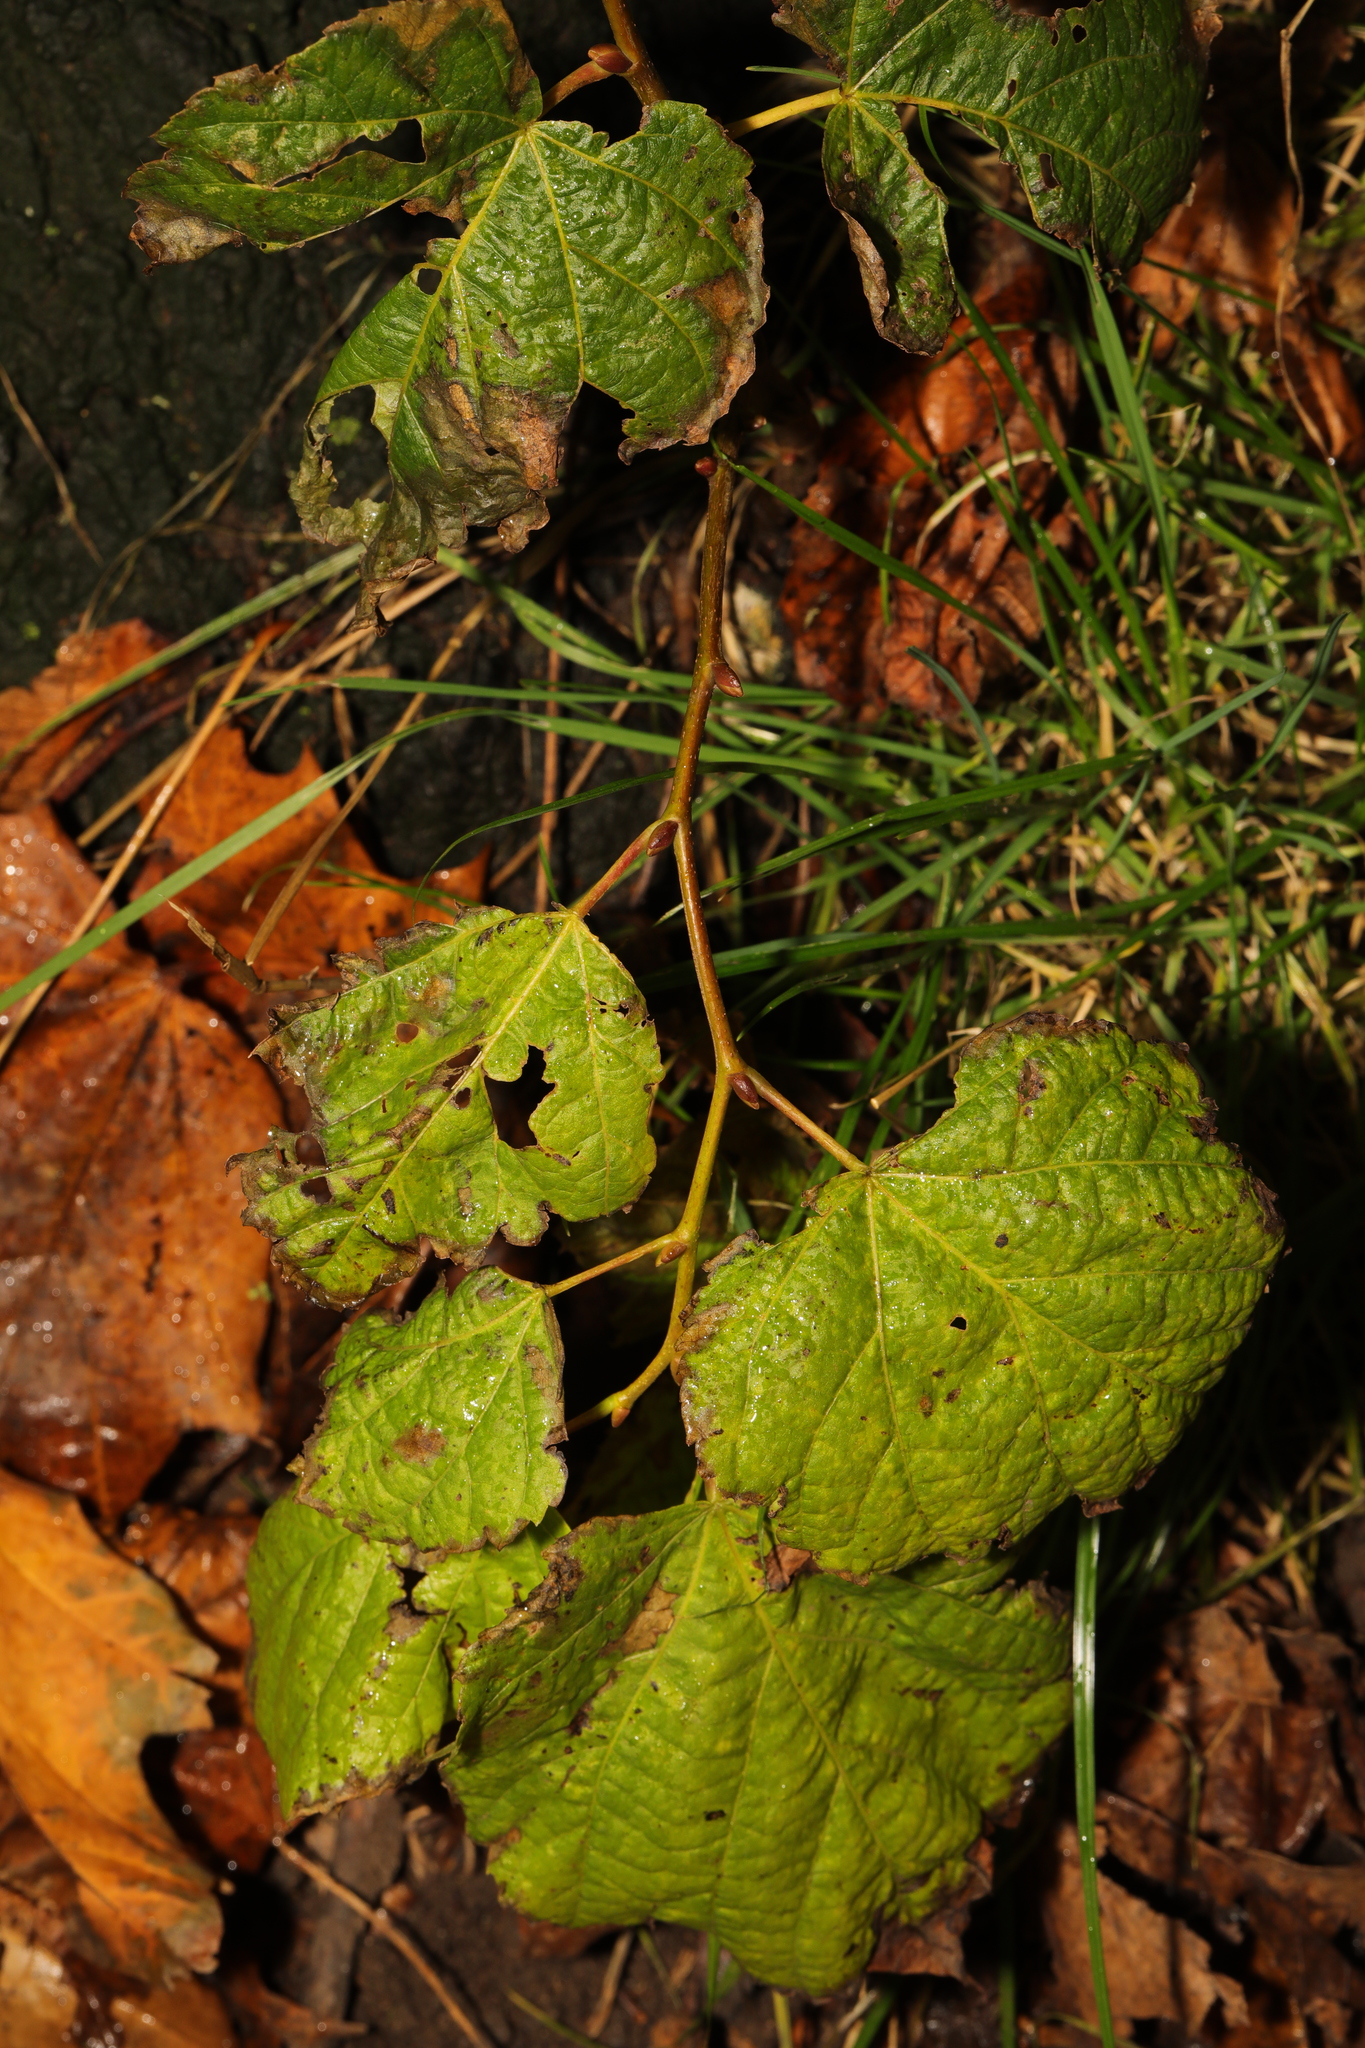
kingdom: Plantae
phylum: Tracheophyta
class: Magnoliopsida
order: Fagales
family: Betulaceae
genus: Corylus
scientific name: Corylus avellana
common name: European hazel
